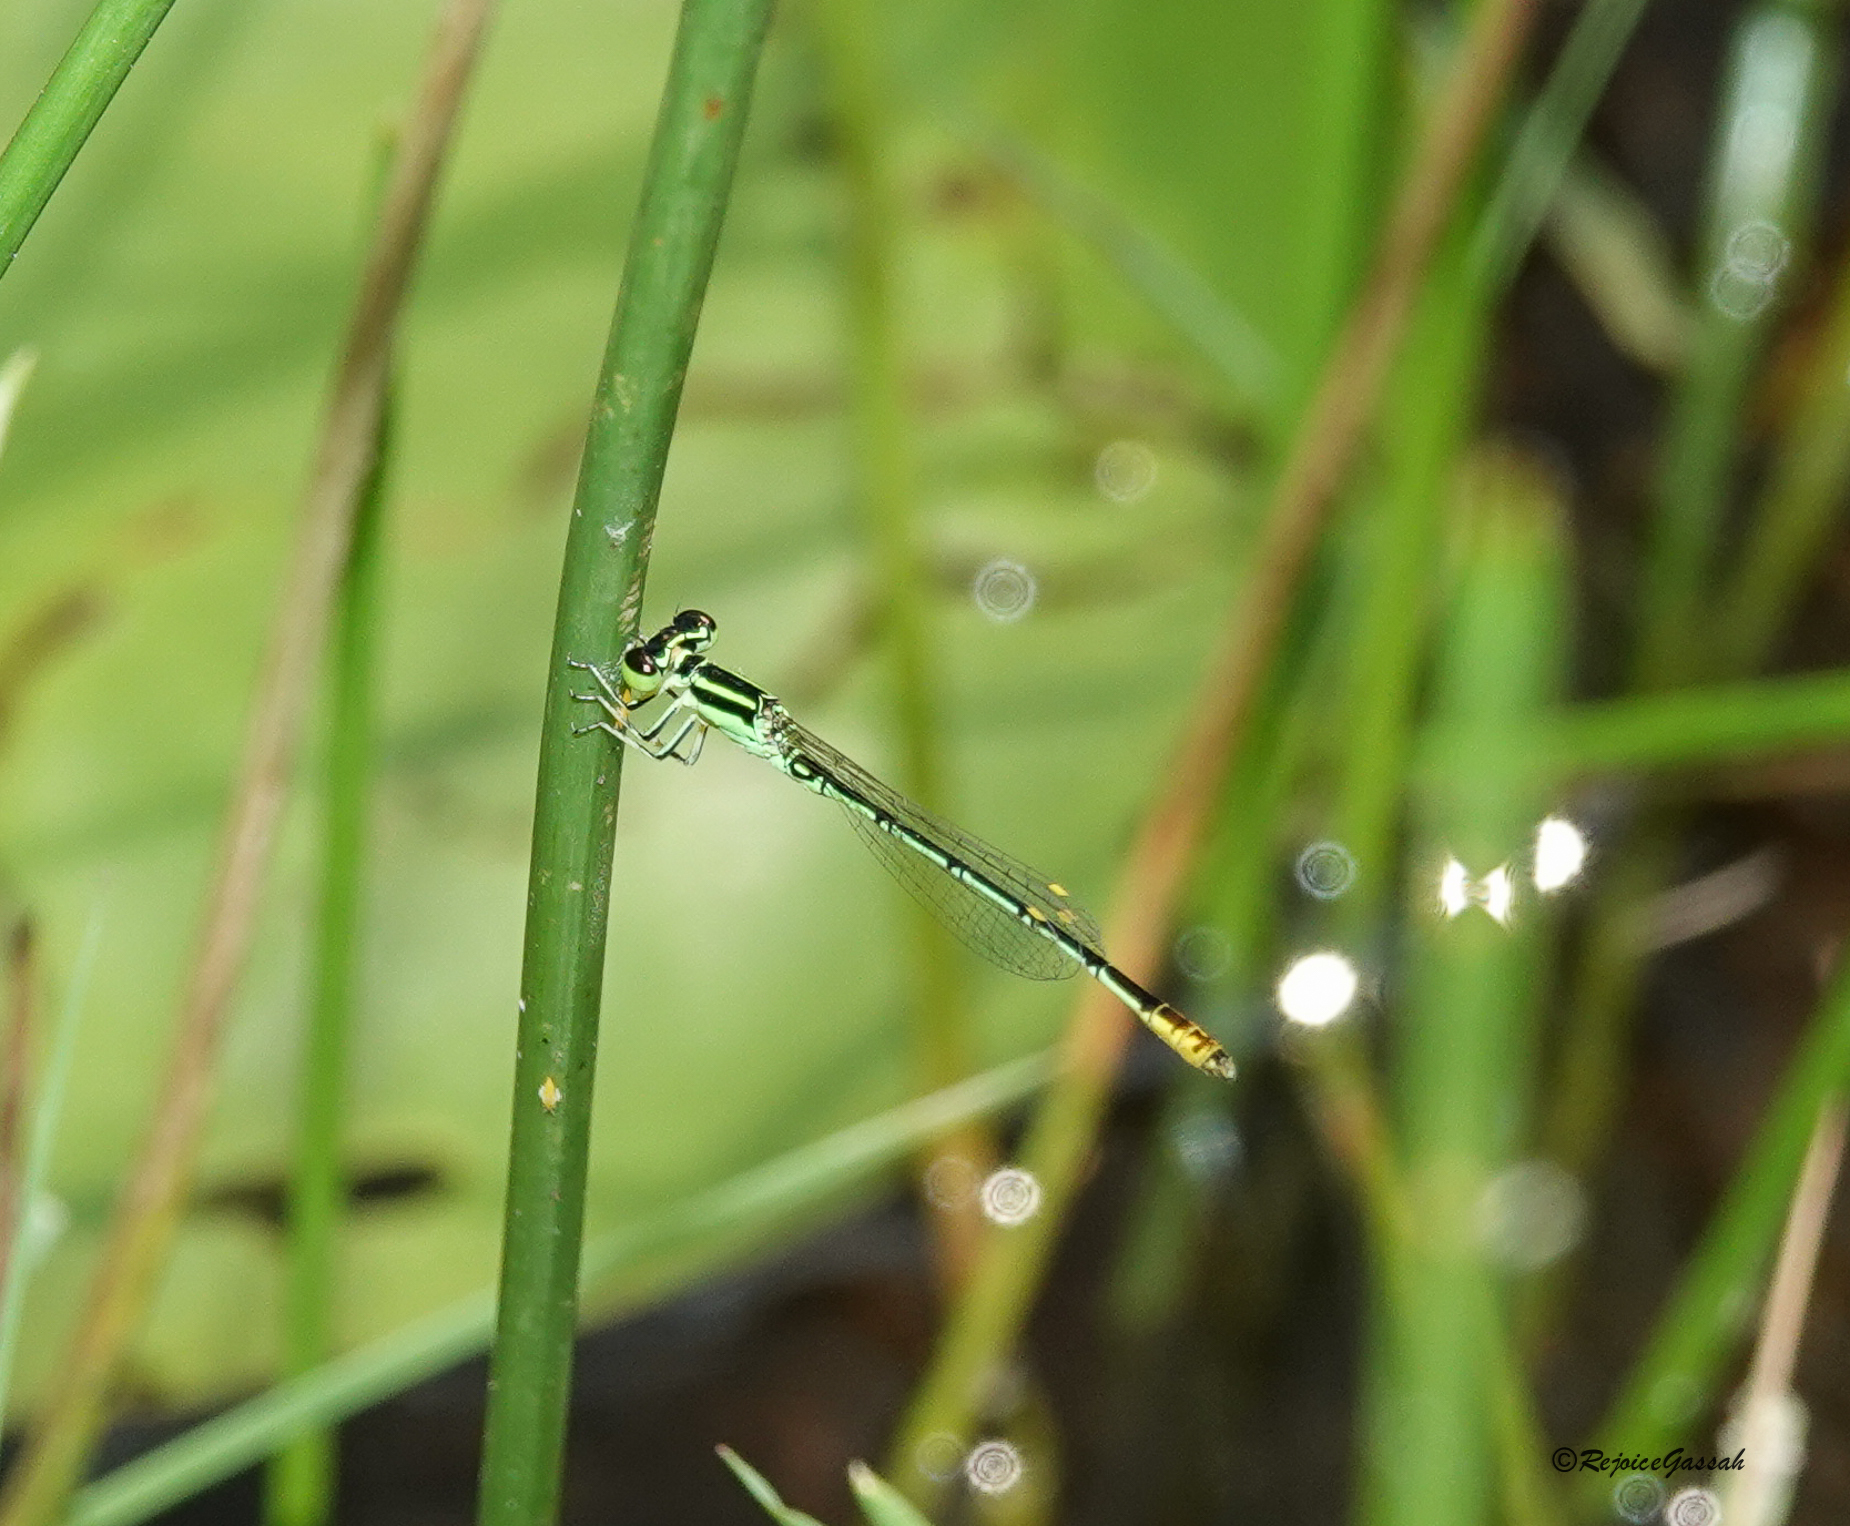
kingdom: Animalia
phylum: Arthropoda
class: Insecta
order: Odonata
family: Coenagrionidae
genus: Agriocnemis
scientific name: Agriocnemis kalinga
